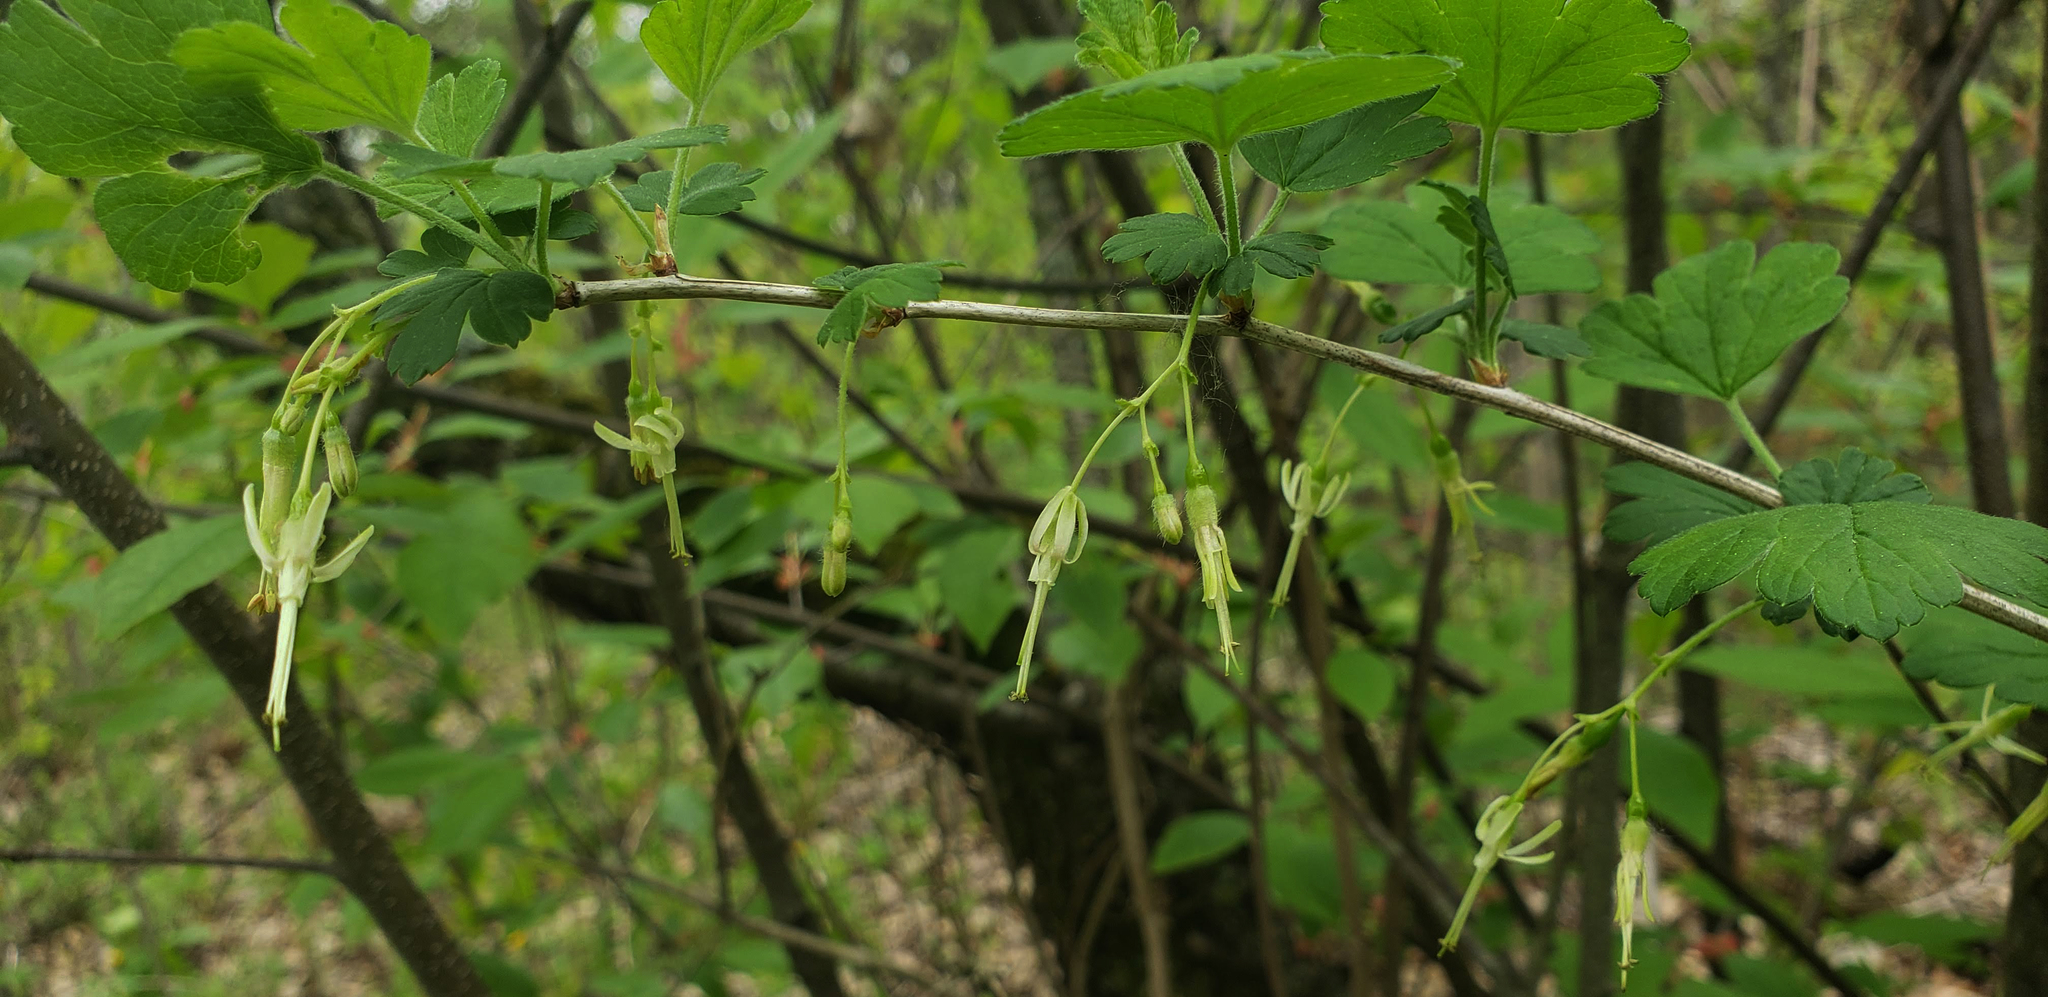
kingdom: Plantae
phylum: Tracheophyta
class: Magnoliopsida
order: Saxifragales
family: Grossulariaceae
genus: Ribes
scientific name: Ribes missouriense
